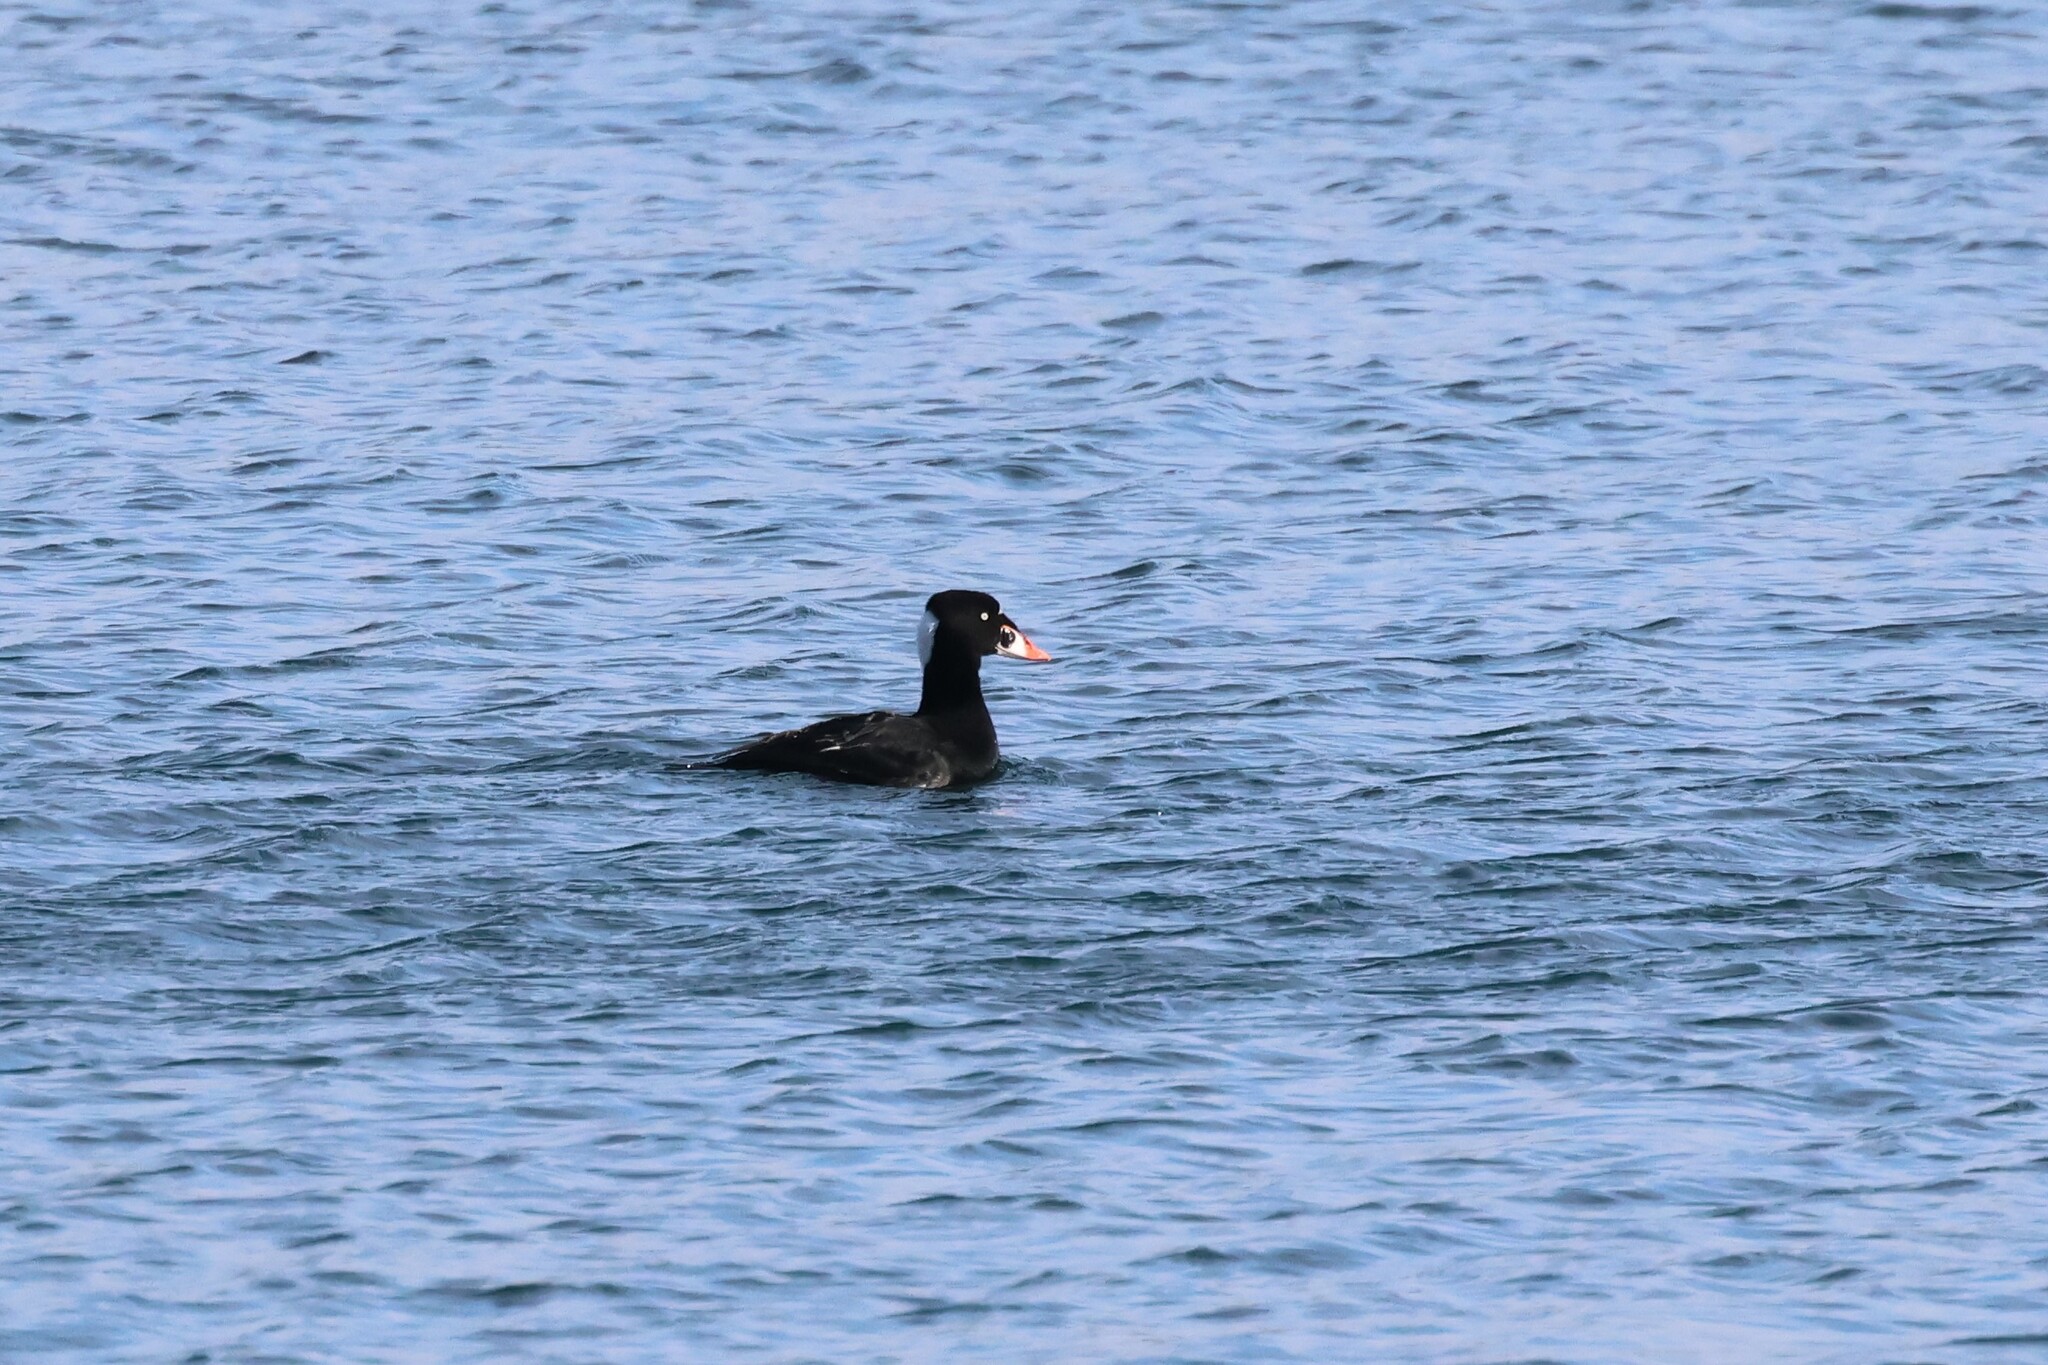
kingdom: Animalia
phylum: Chordata
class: Aves
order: Anseriformes
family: Anatidae
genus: Melanitta
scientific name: Melanitta perspicillata
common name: Surf scoter
